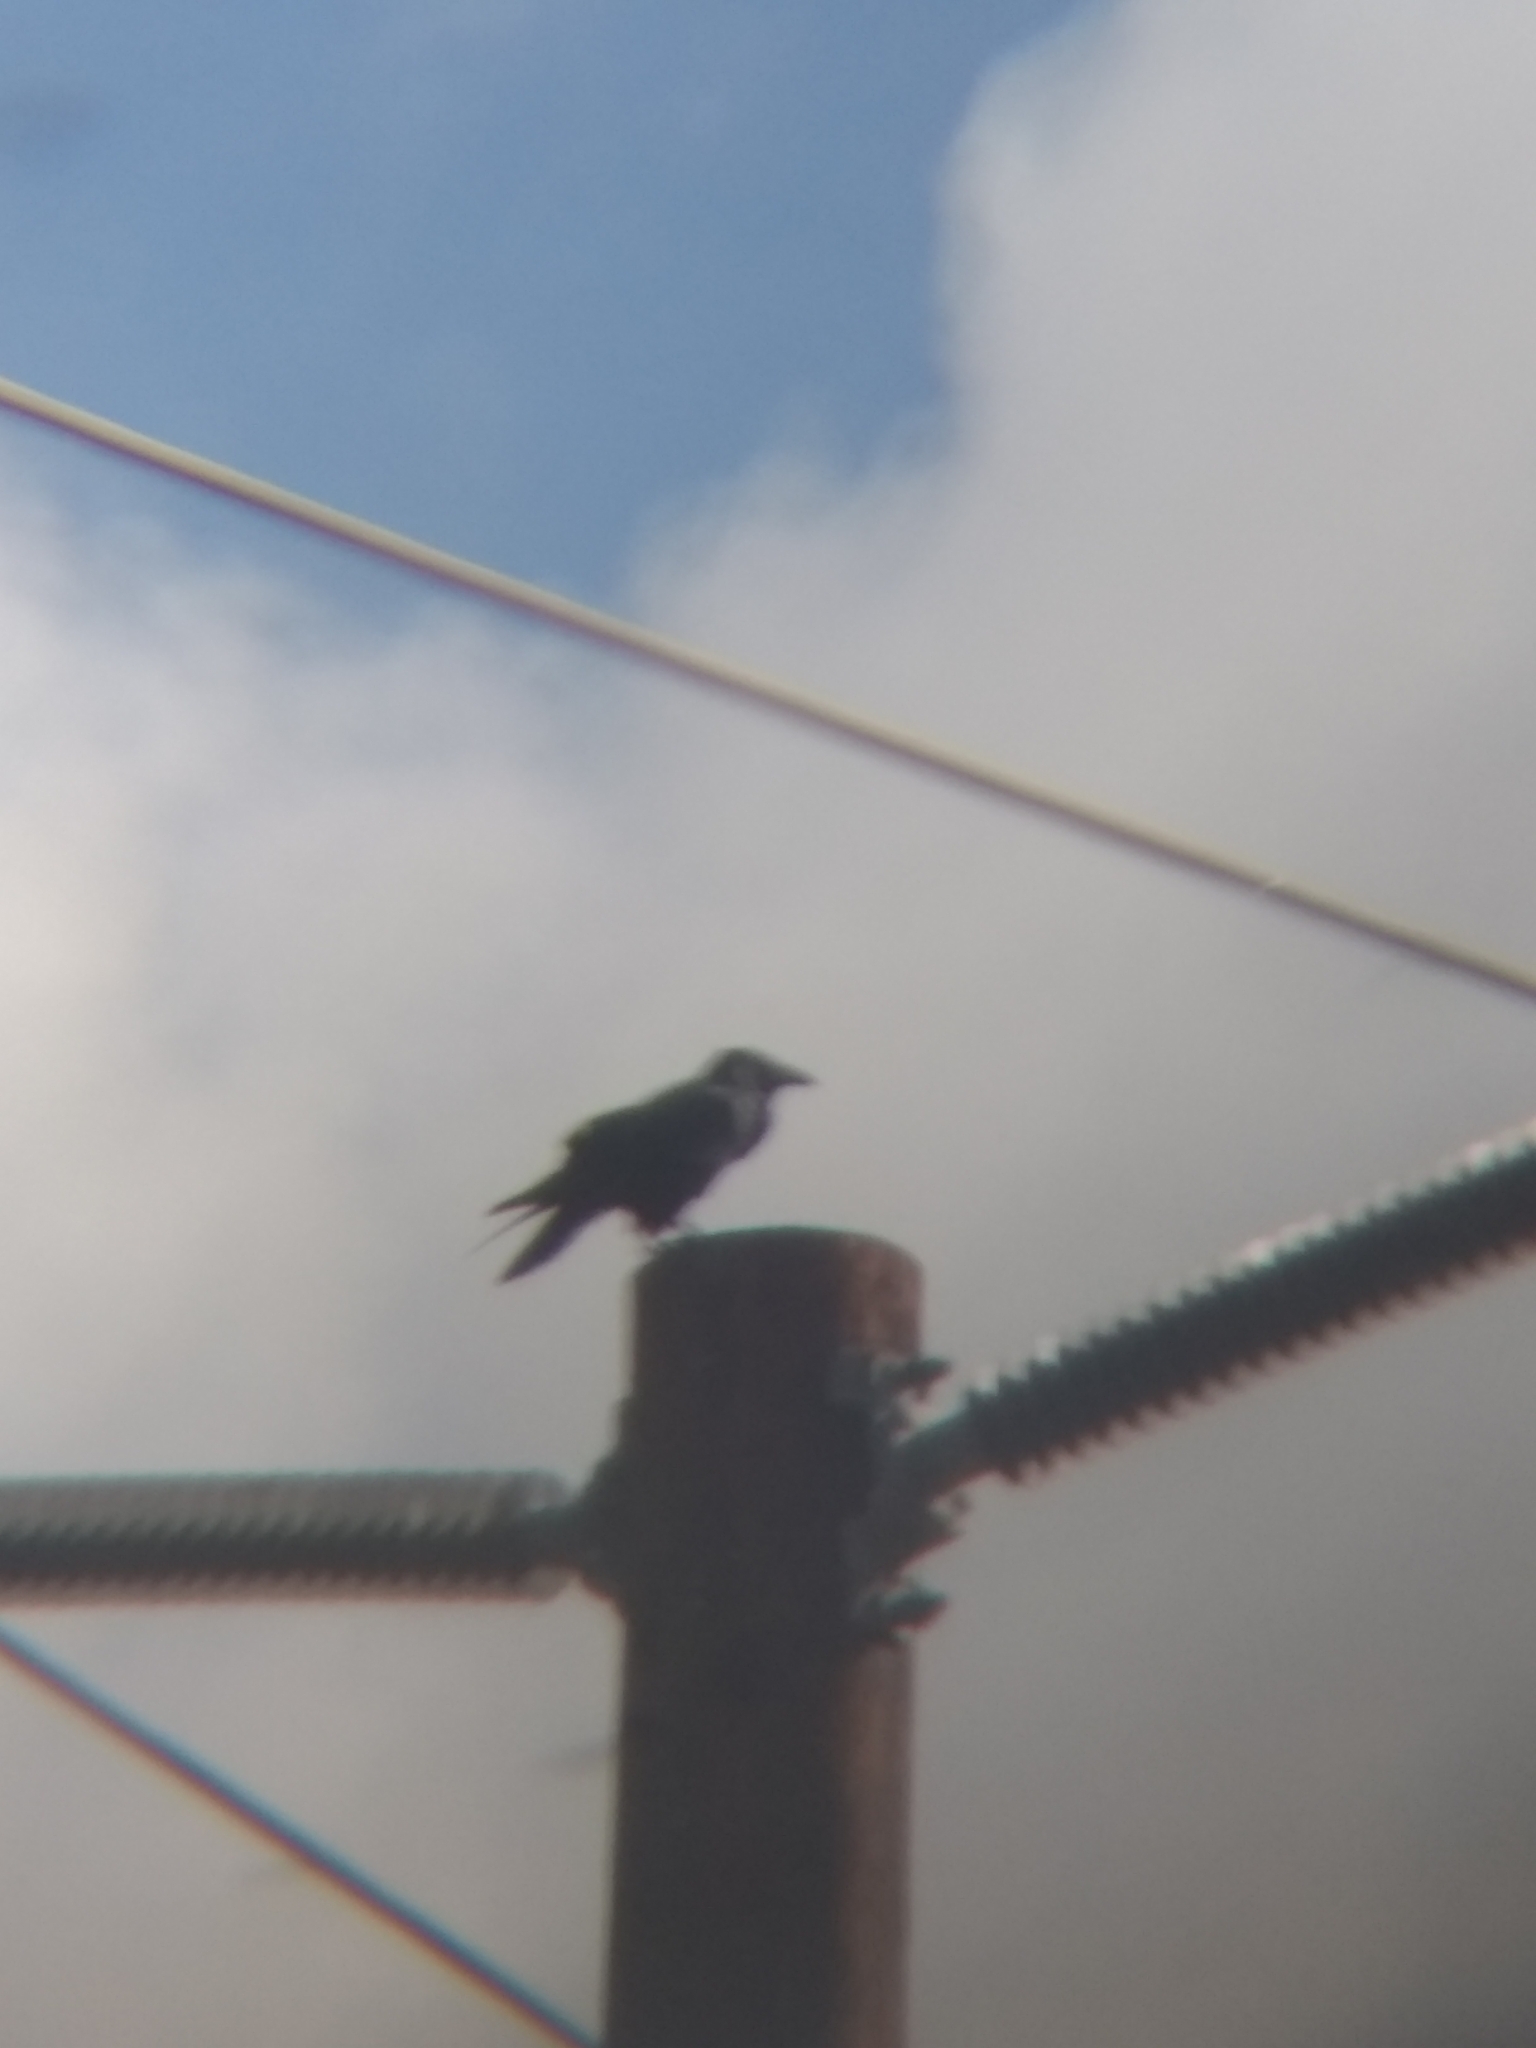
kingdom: Animalia
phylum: Chordata
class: Aves
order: Passeriformes
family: Corvidae
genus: Corvus
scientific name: Corvus brachyrhynchos
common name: American crow
